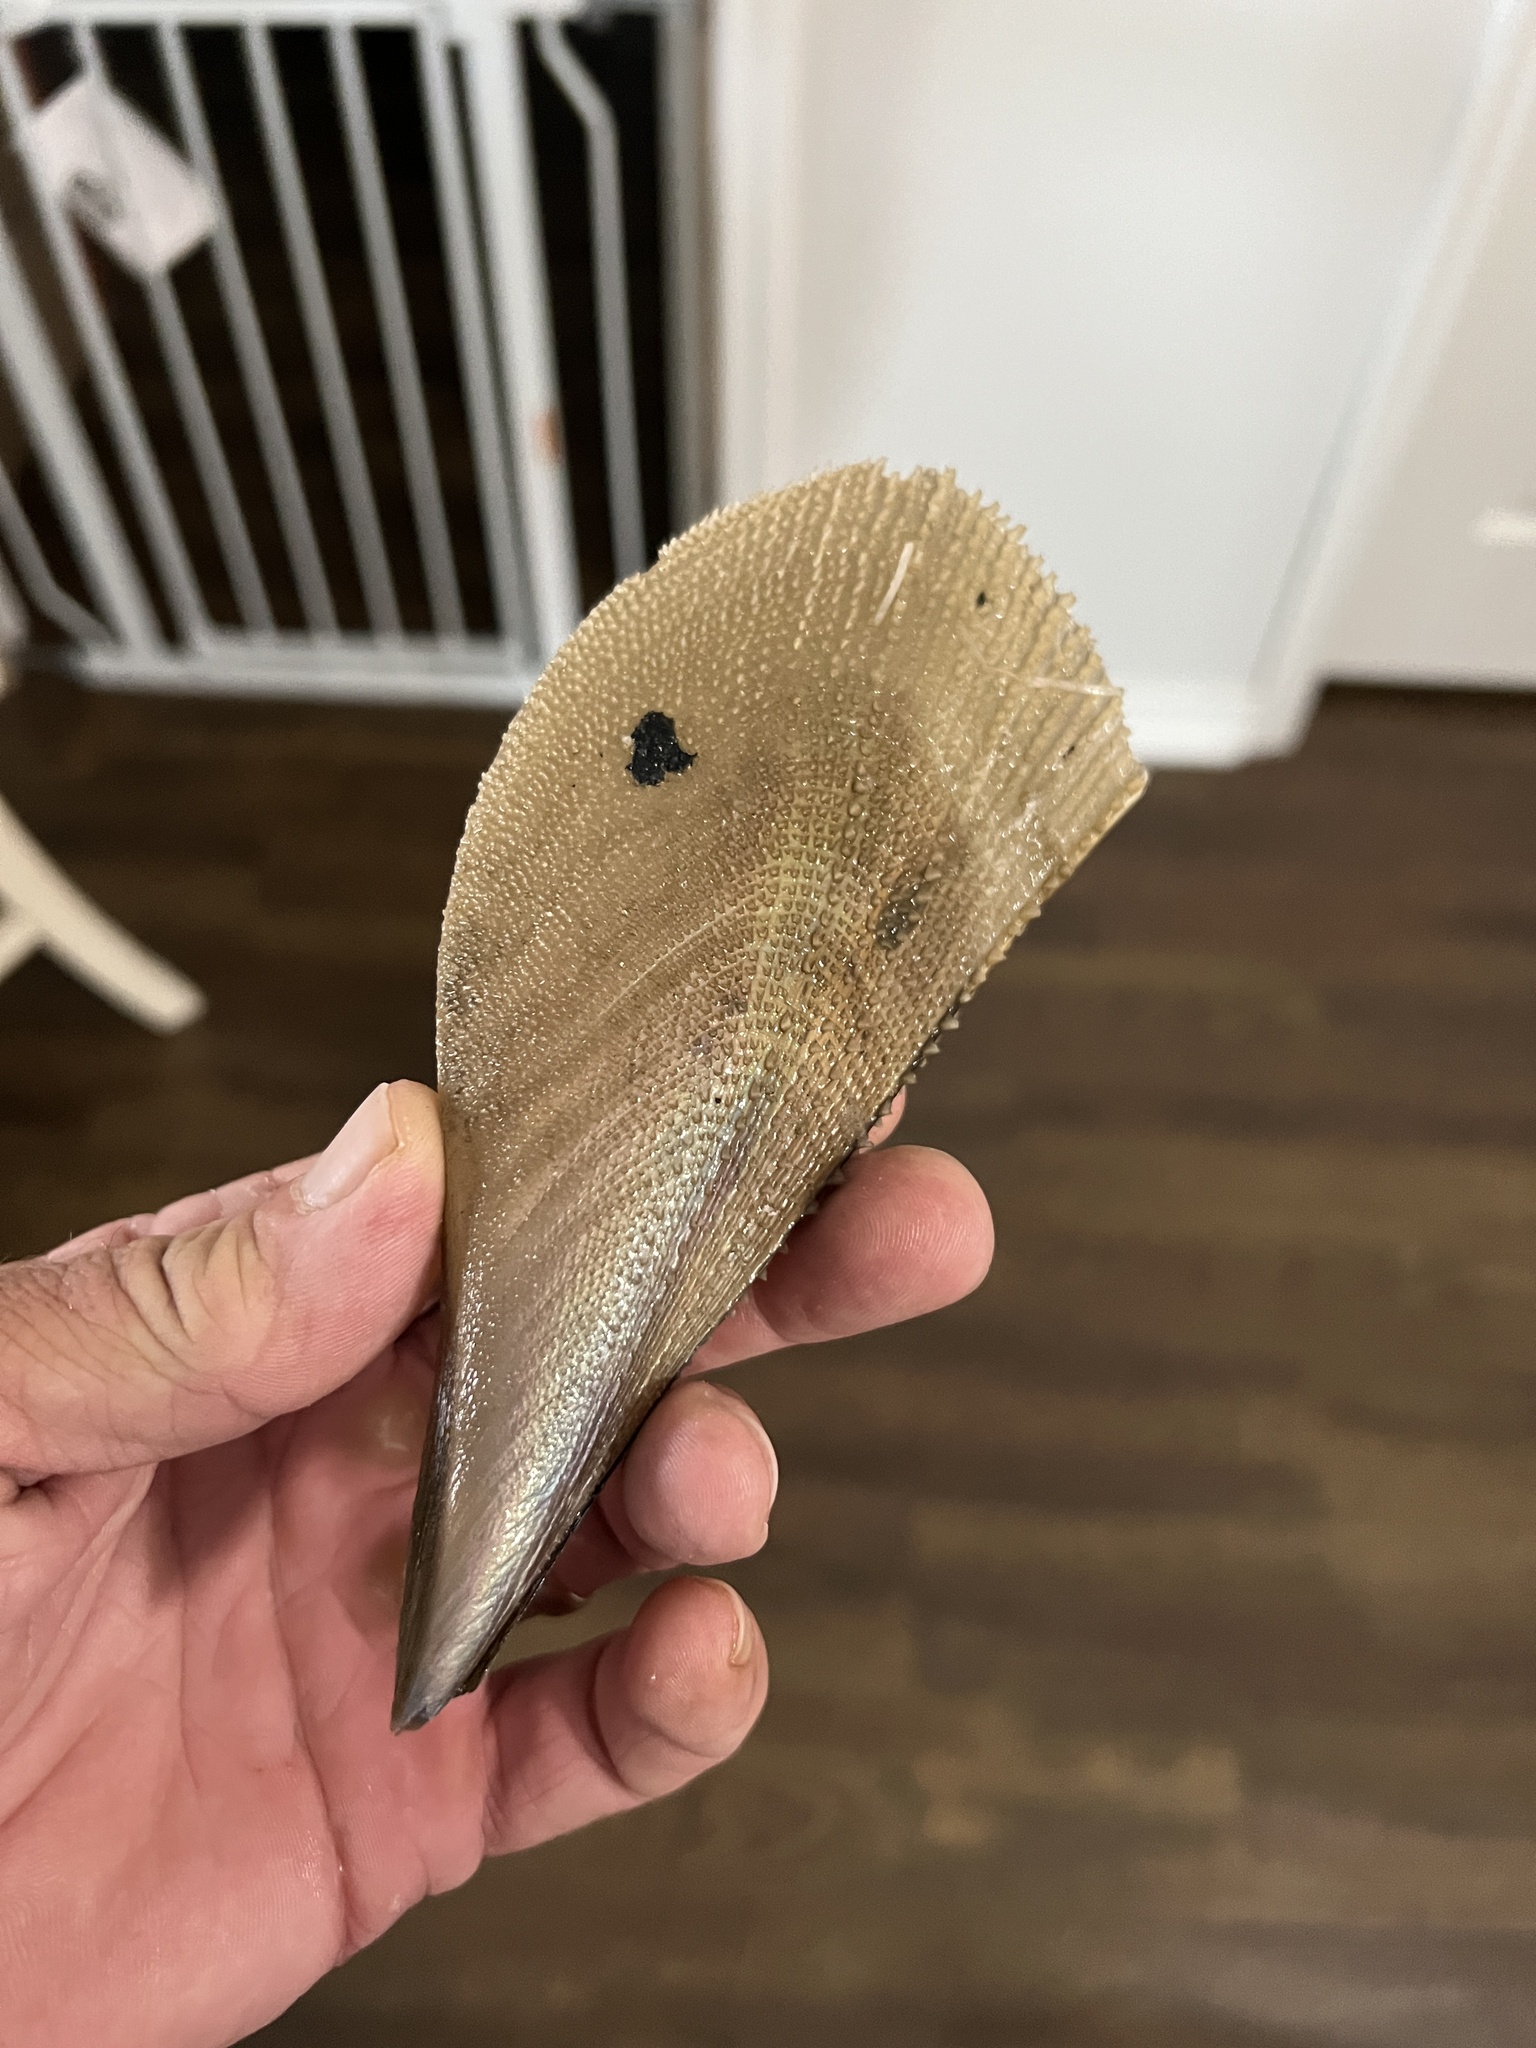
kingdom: Animalia
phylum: Mollusca
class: Bivalvia
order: Ostreida
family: Pinnidae
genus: Atrina
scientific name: Atrina serrata
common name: Saw-toothed penshell
